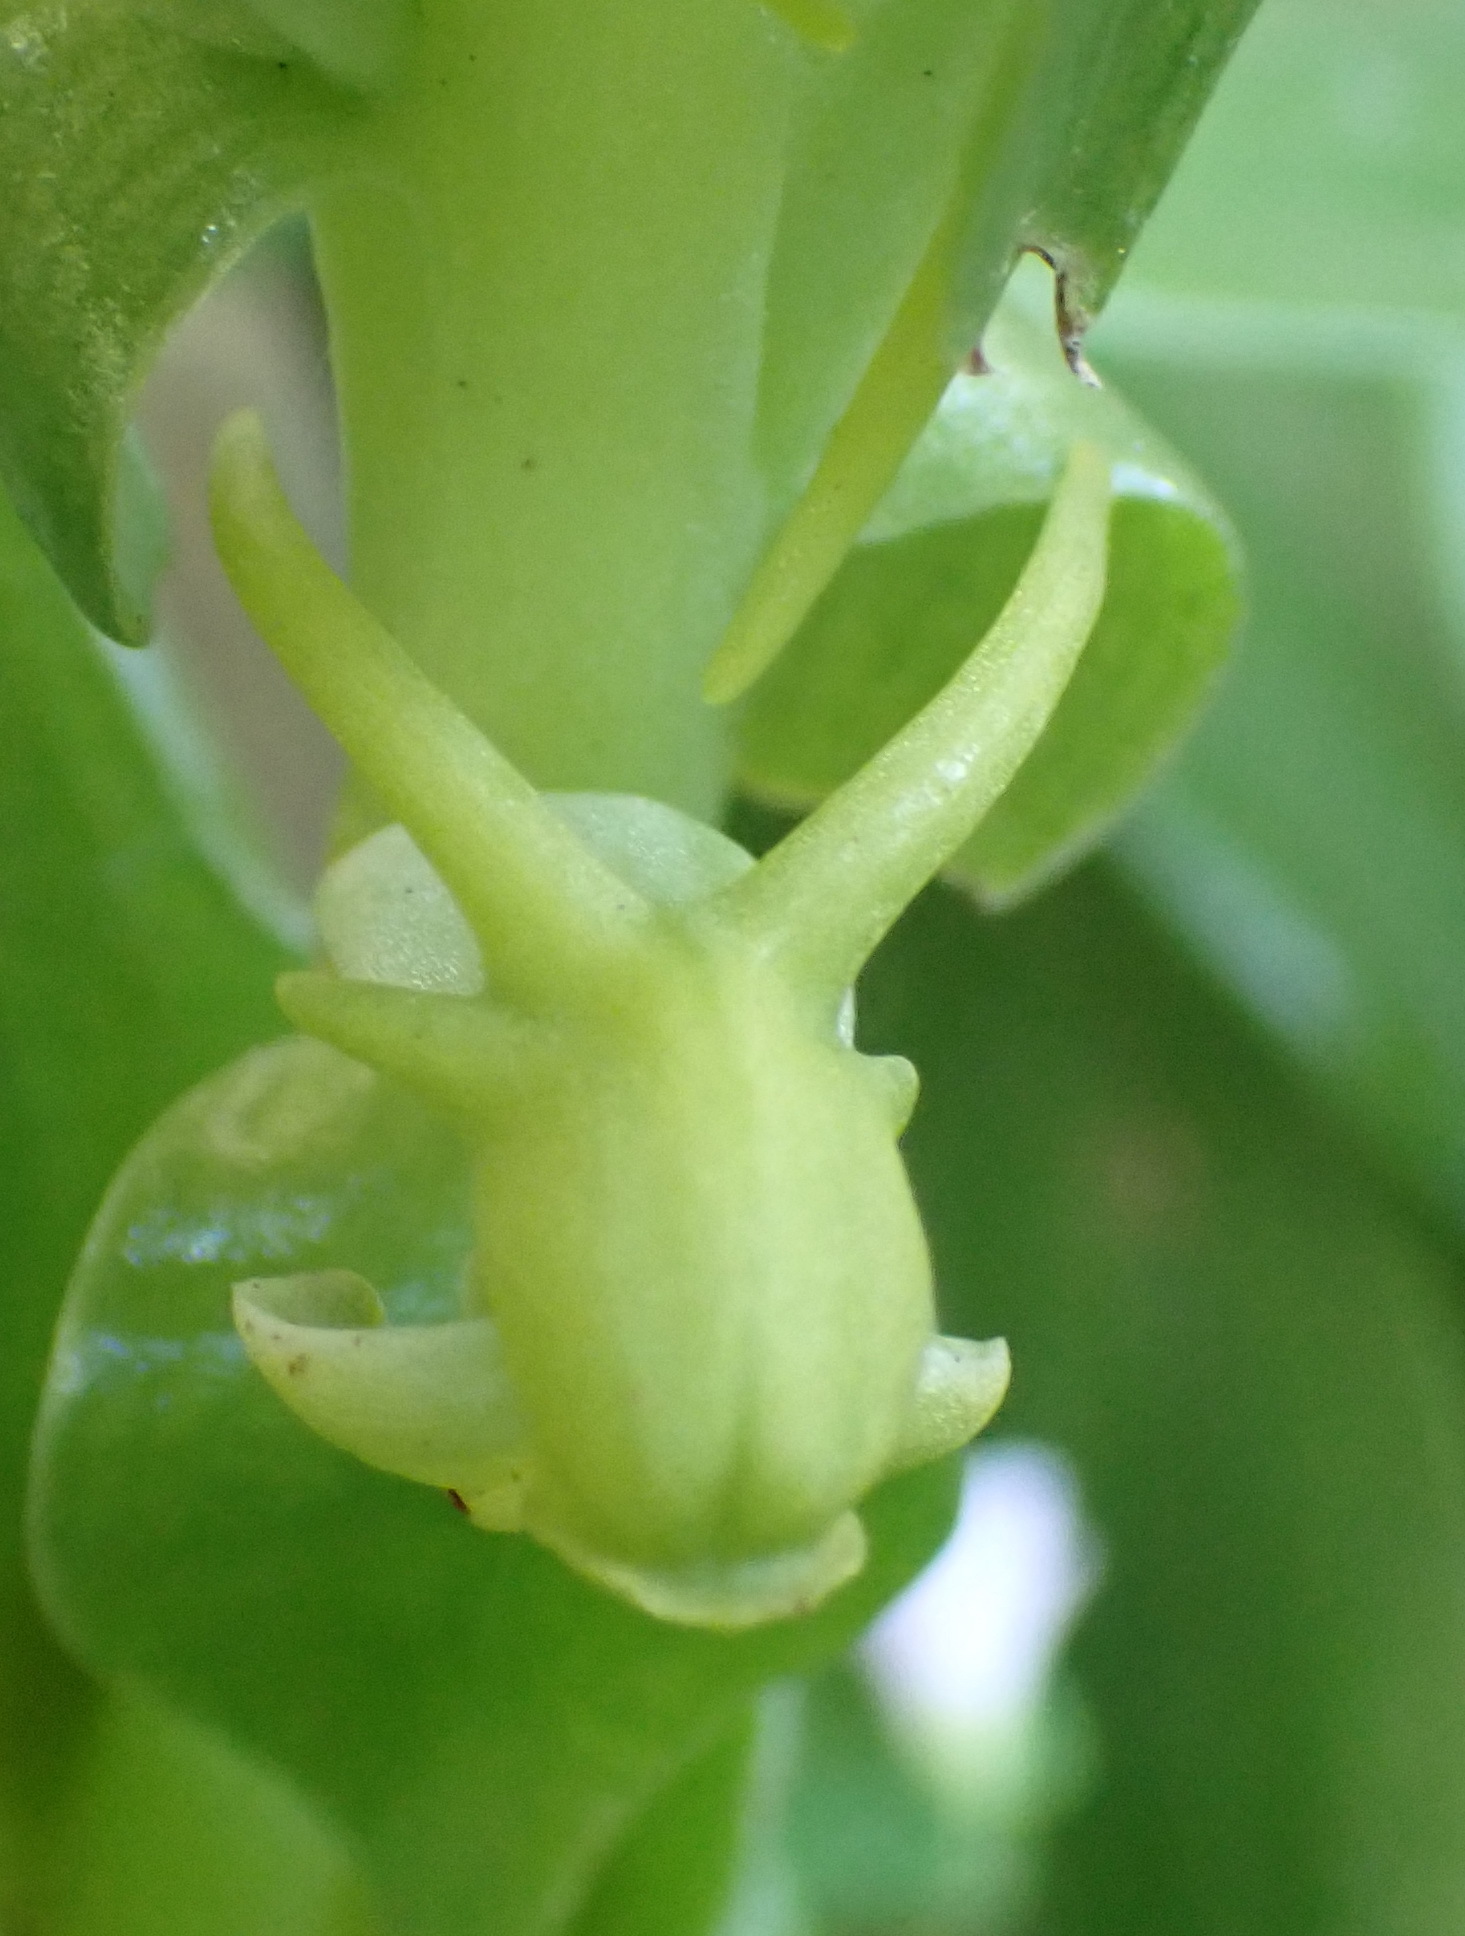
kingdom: Plantae
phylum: Tracheophyta
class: Liliopsida
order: Asparagales
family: Orchidaceae
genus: Satyrium
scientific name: Satyrium odorum
